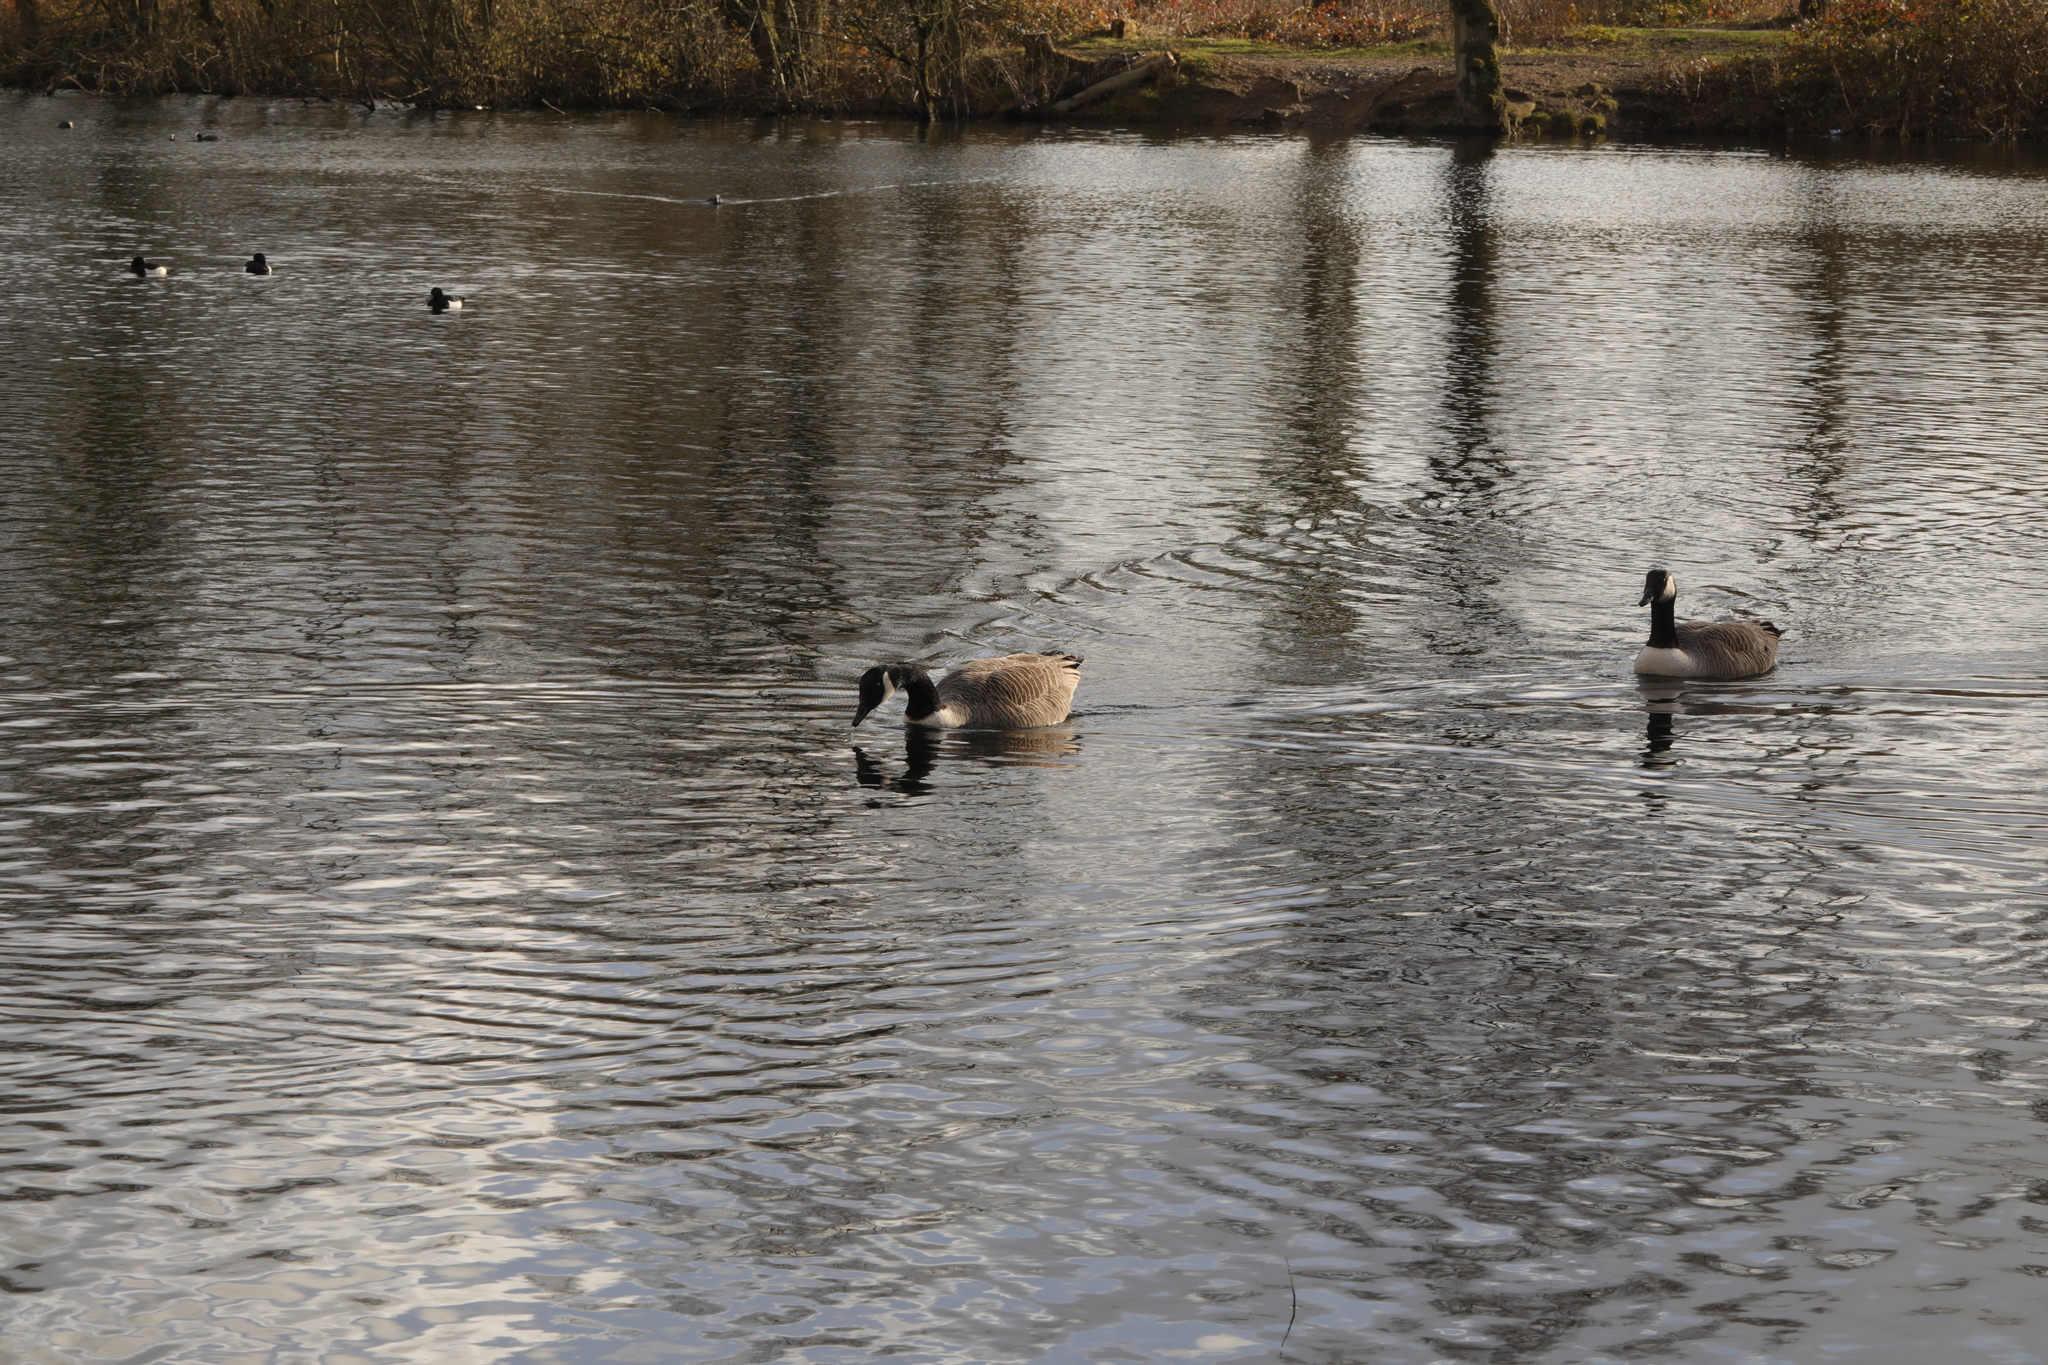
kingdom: Animalia
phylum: Chordata
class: Aves
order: Anseriformes
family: Anatidae
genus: Branta
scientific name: Branta canadensis
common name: Canada goose
